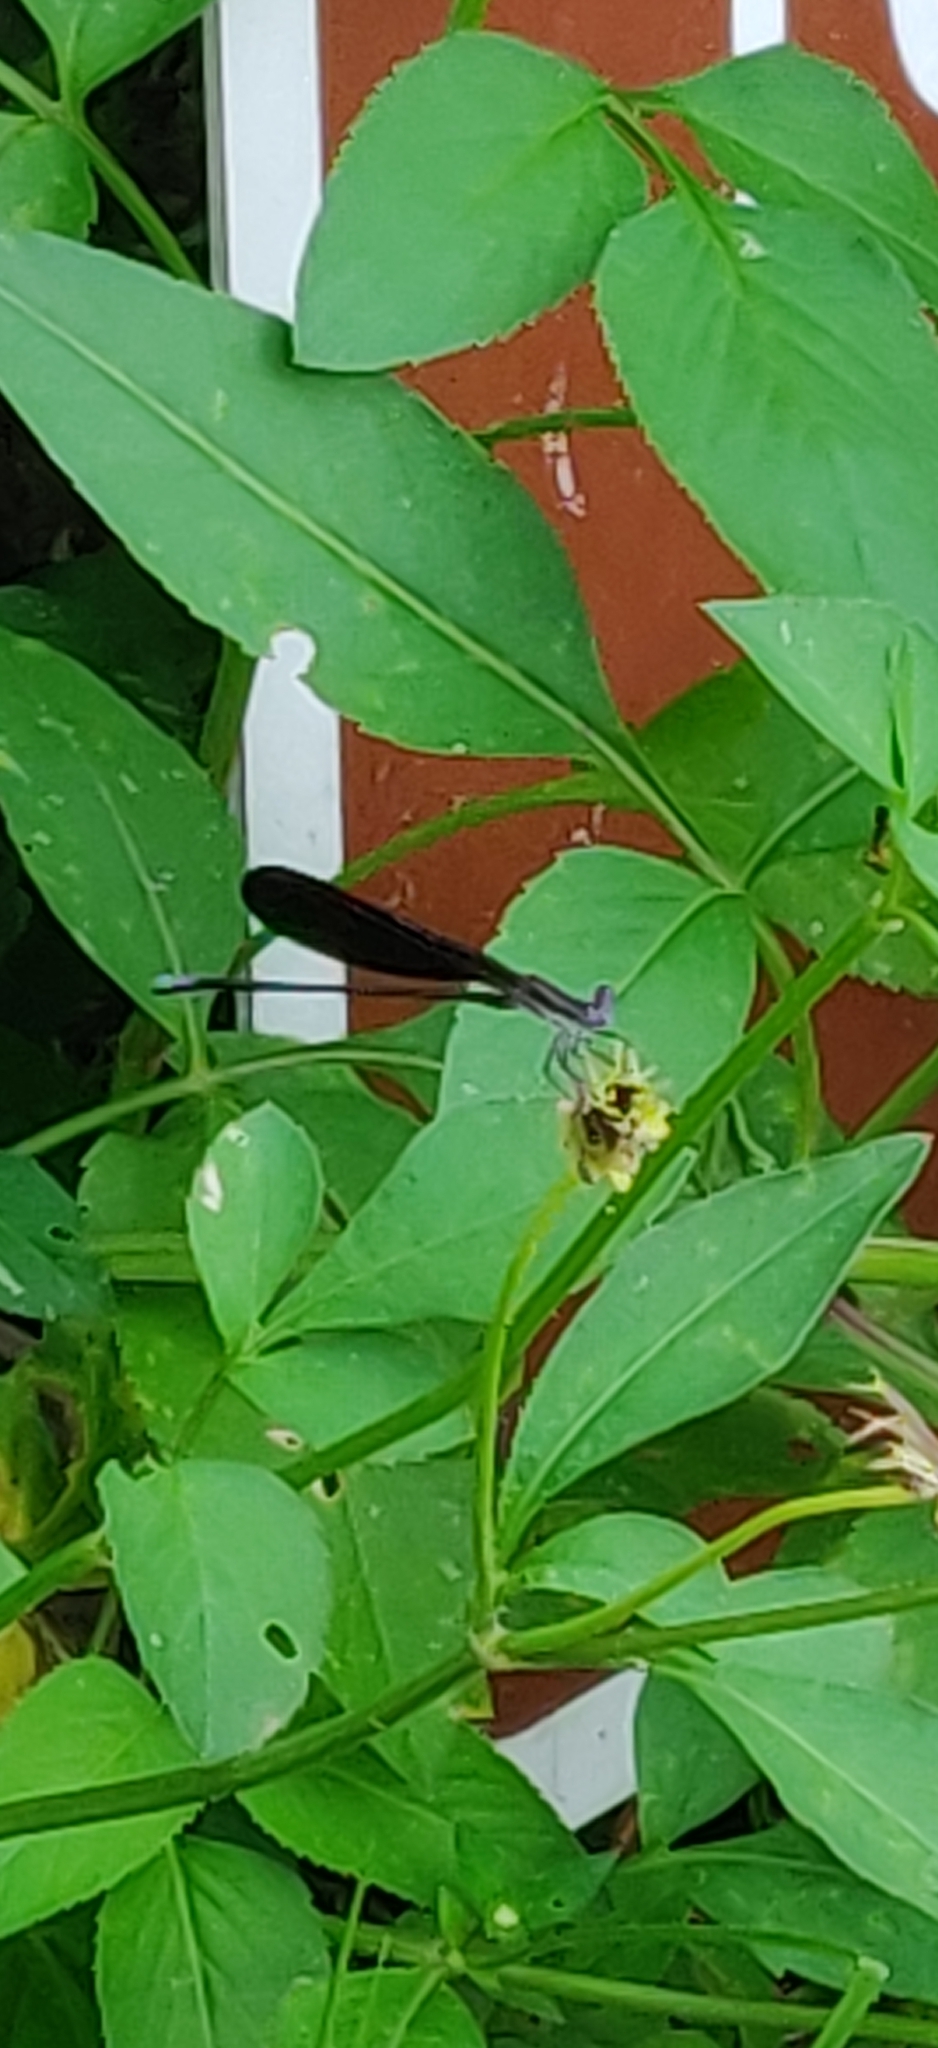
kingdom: Animalia
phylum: Arthropoda
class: Insecta
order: Odonata
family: Coenagrionidae
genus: Argia
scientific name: Argia fumipennis
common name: Variable dancer
